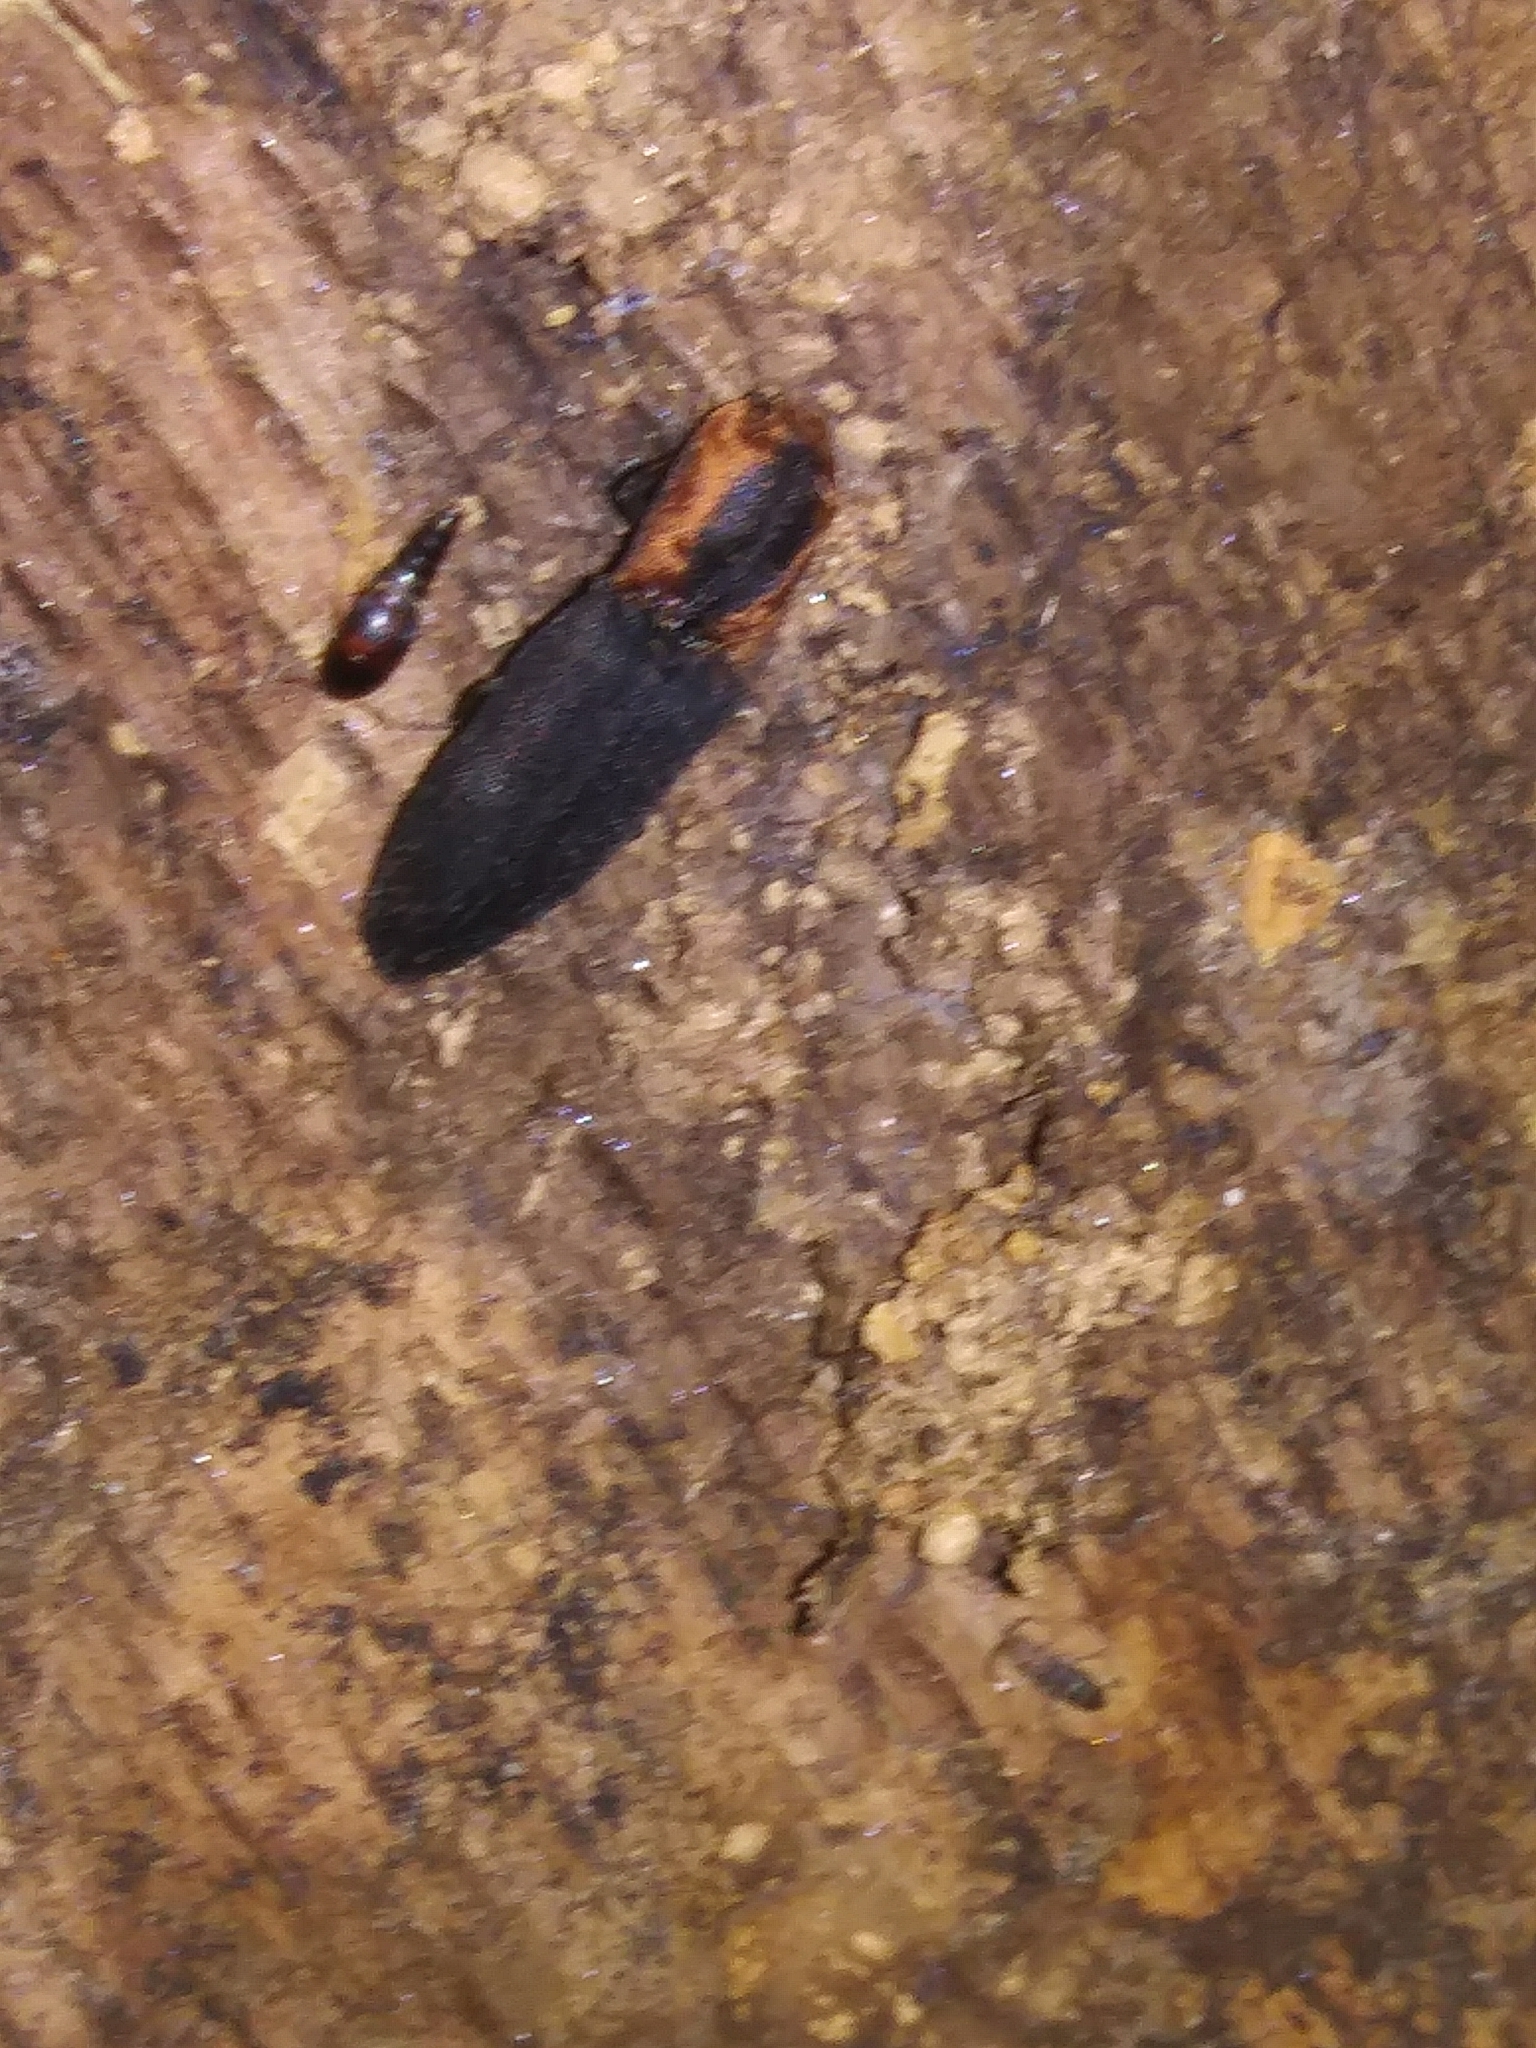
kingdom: Animalia
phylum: Arthropoda
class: Insecta
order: Coleoptera
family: Elateridae
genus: Lacon
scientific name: Lacon discoideus
